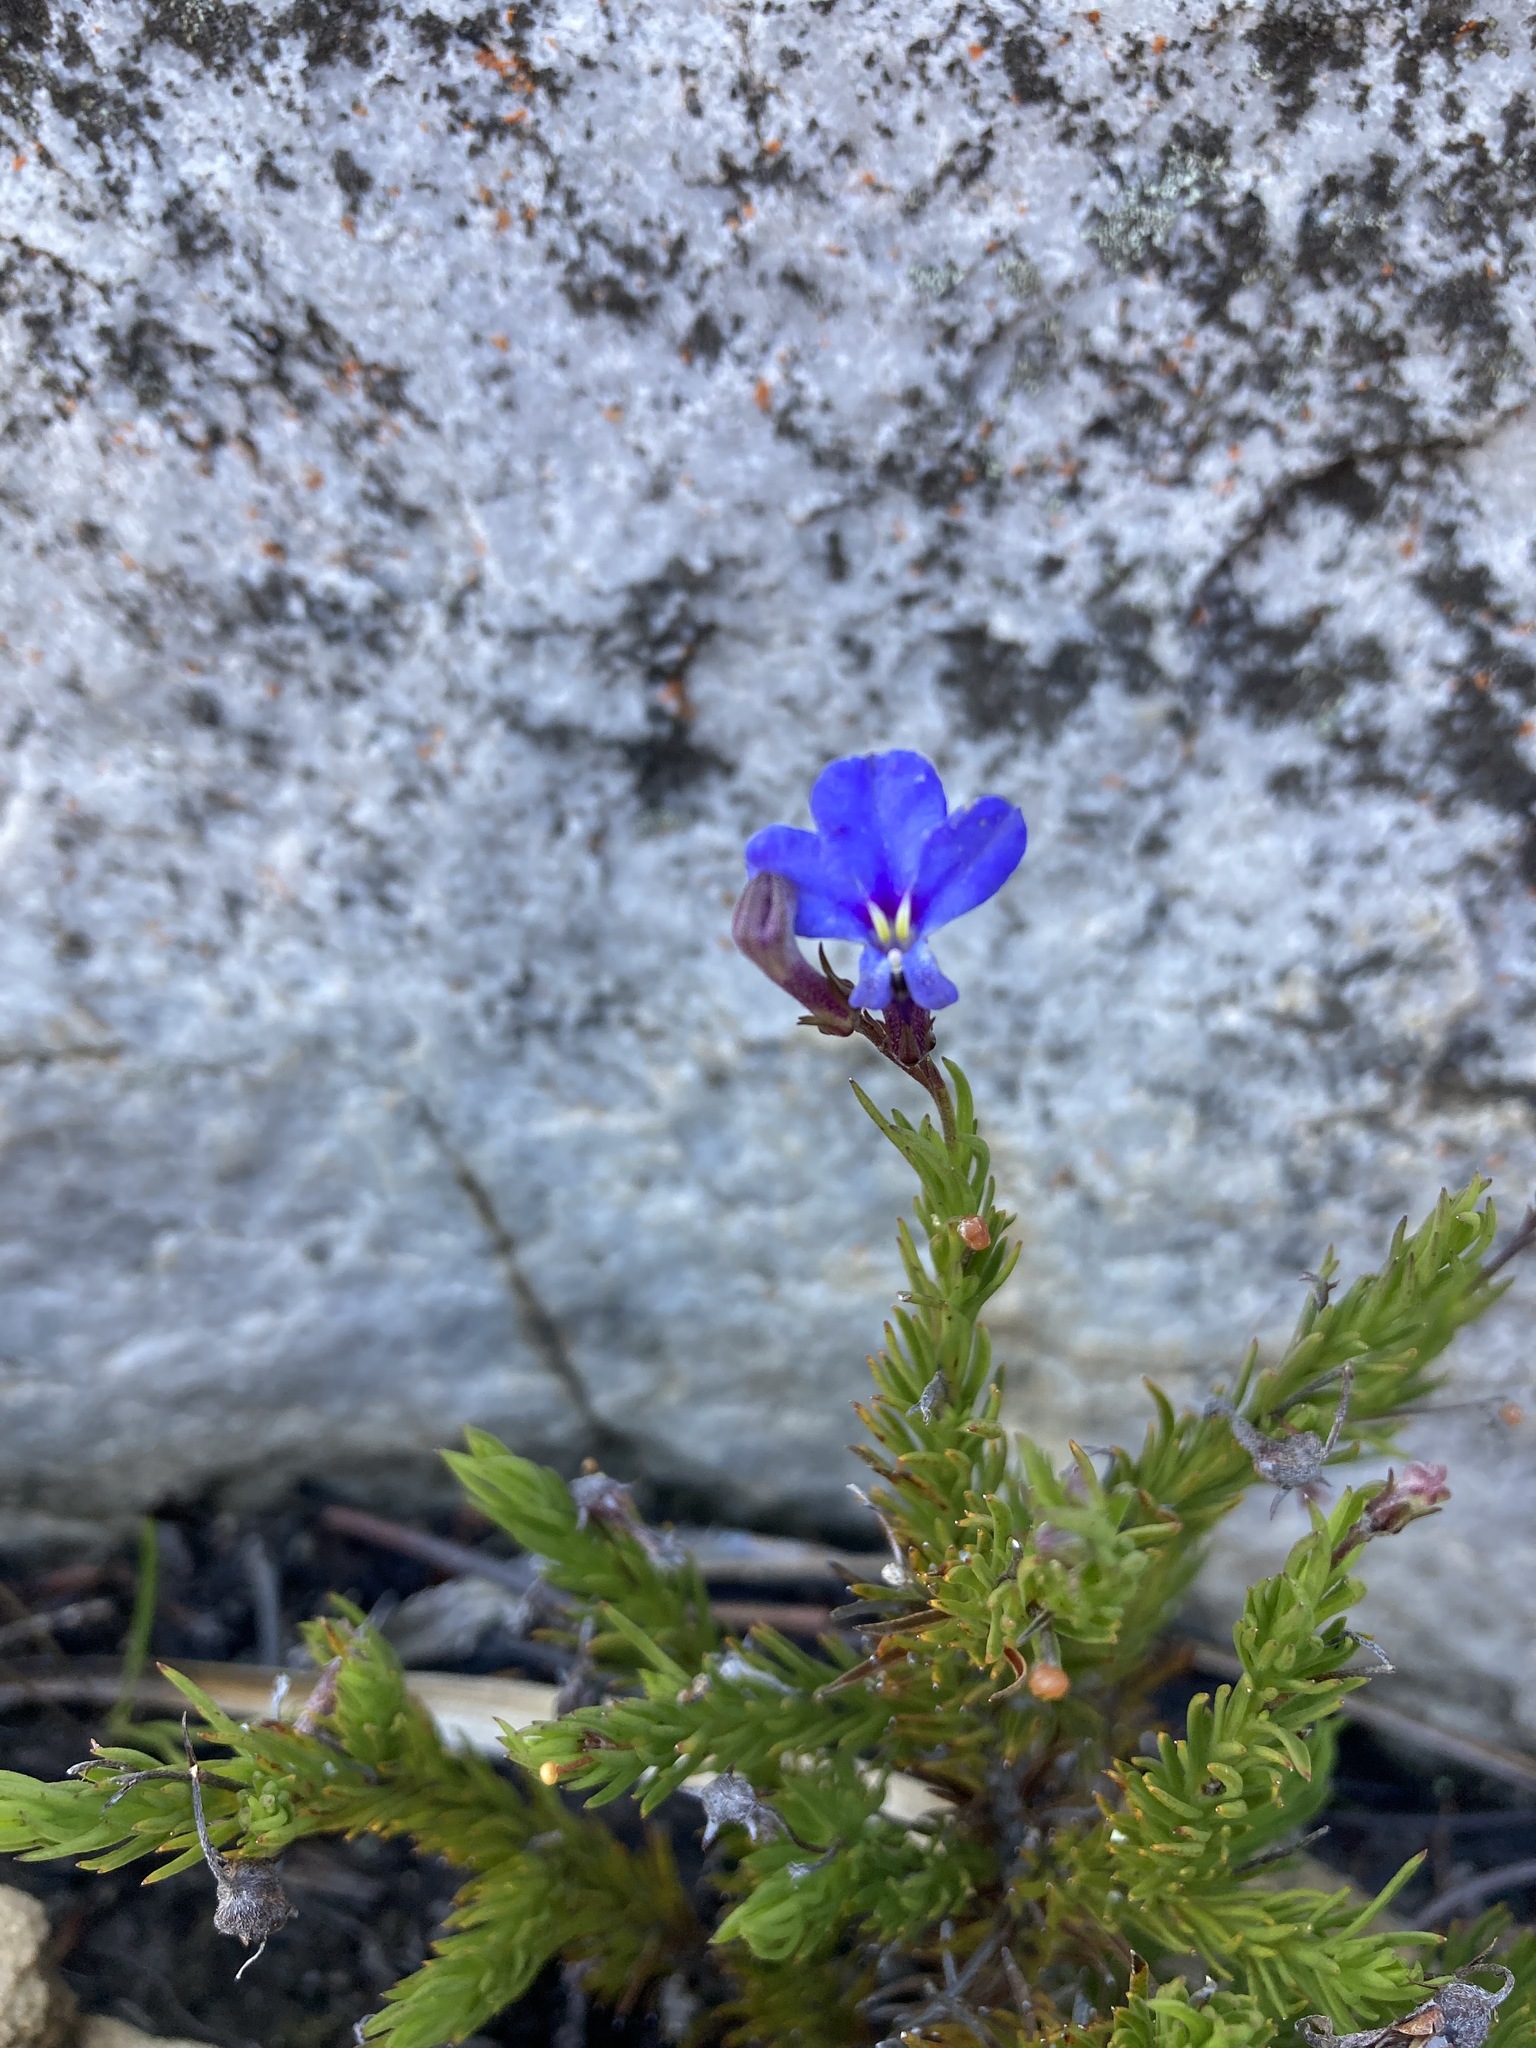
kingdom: Plantae
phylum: Tracheophyta
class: Magnoliopsida
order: Asterales
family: Campanulaceae
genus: Lobelia
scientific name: Lobelia pinifolia
